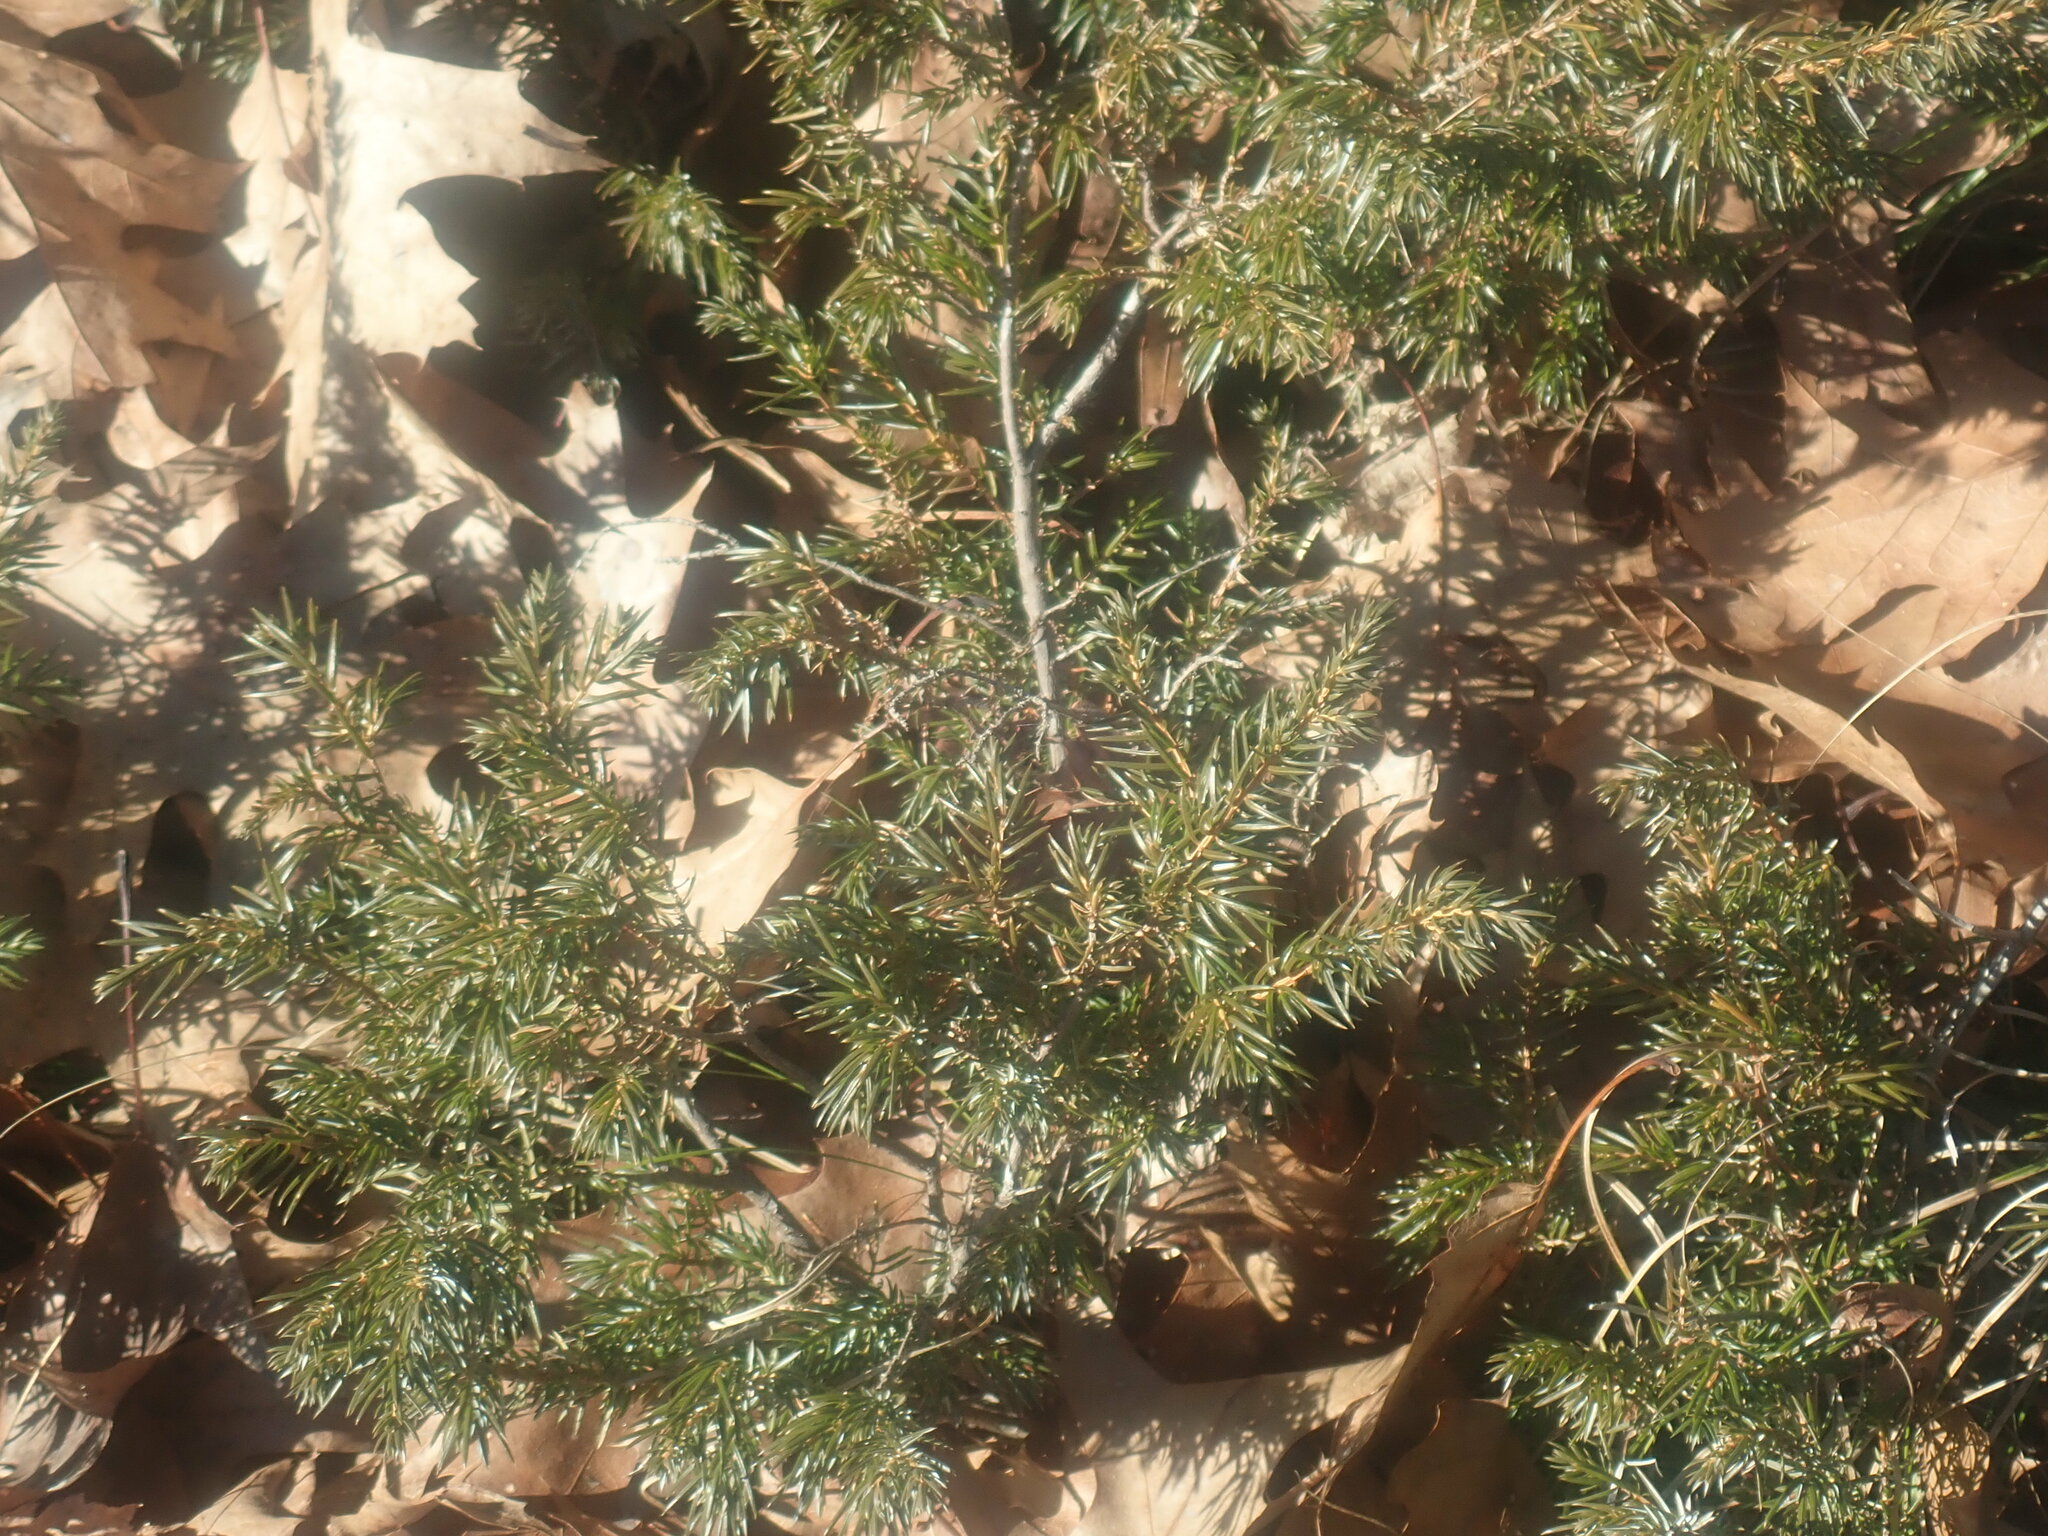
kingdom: Plantae
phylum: Tracheophyta
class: Pinopsida
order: Pinales
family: Cupressaceae
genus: Juniperus
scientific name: Juniperus communis
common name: Common juniper
